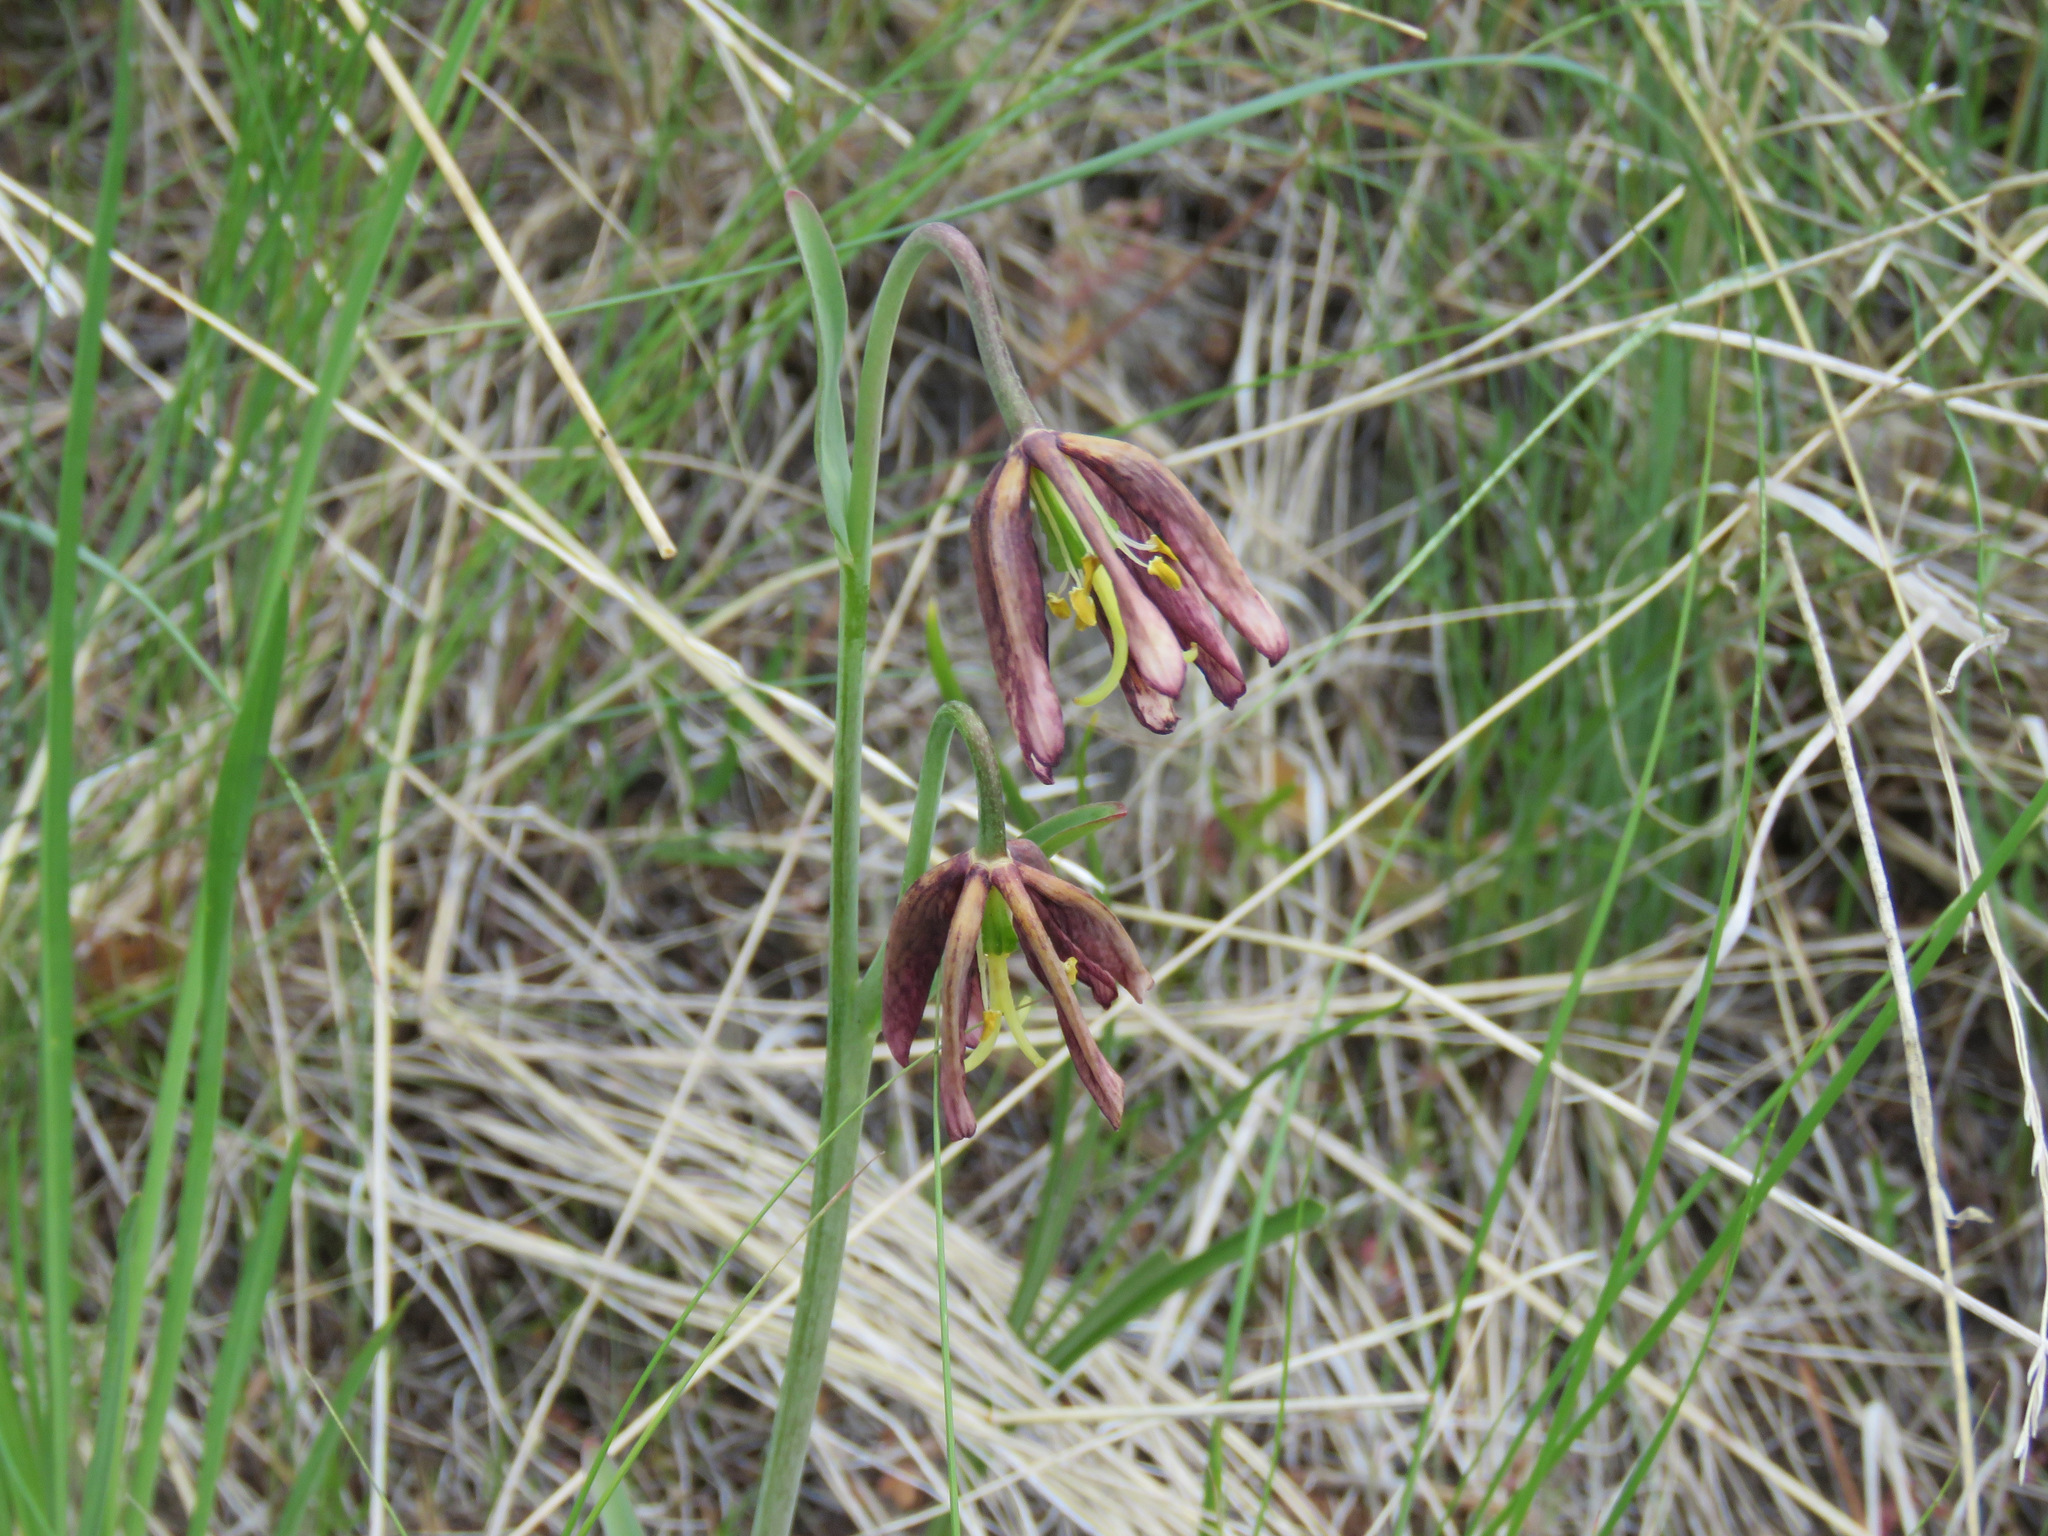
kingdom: Plantae
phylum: Tracheophyta
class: Liliopsida
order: Liliales
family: Liliaceae
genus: Fritillaria
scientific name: Fritillaria affinis
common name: Ojai fritillary
